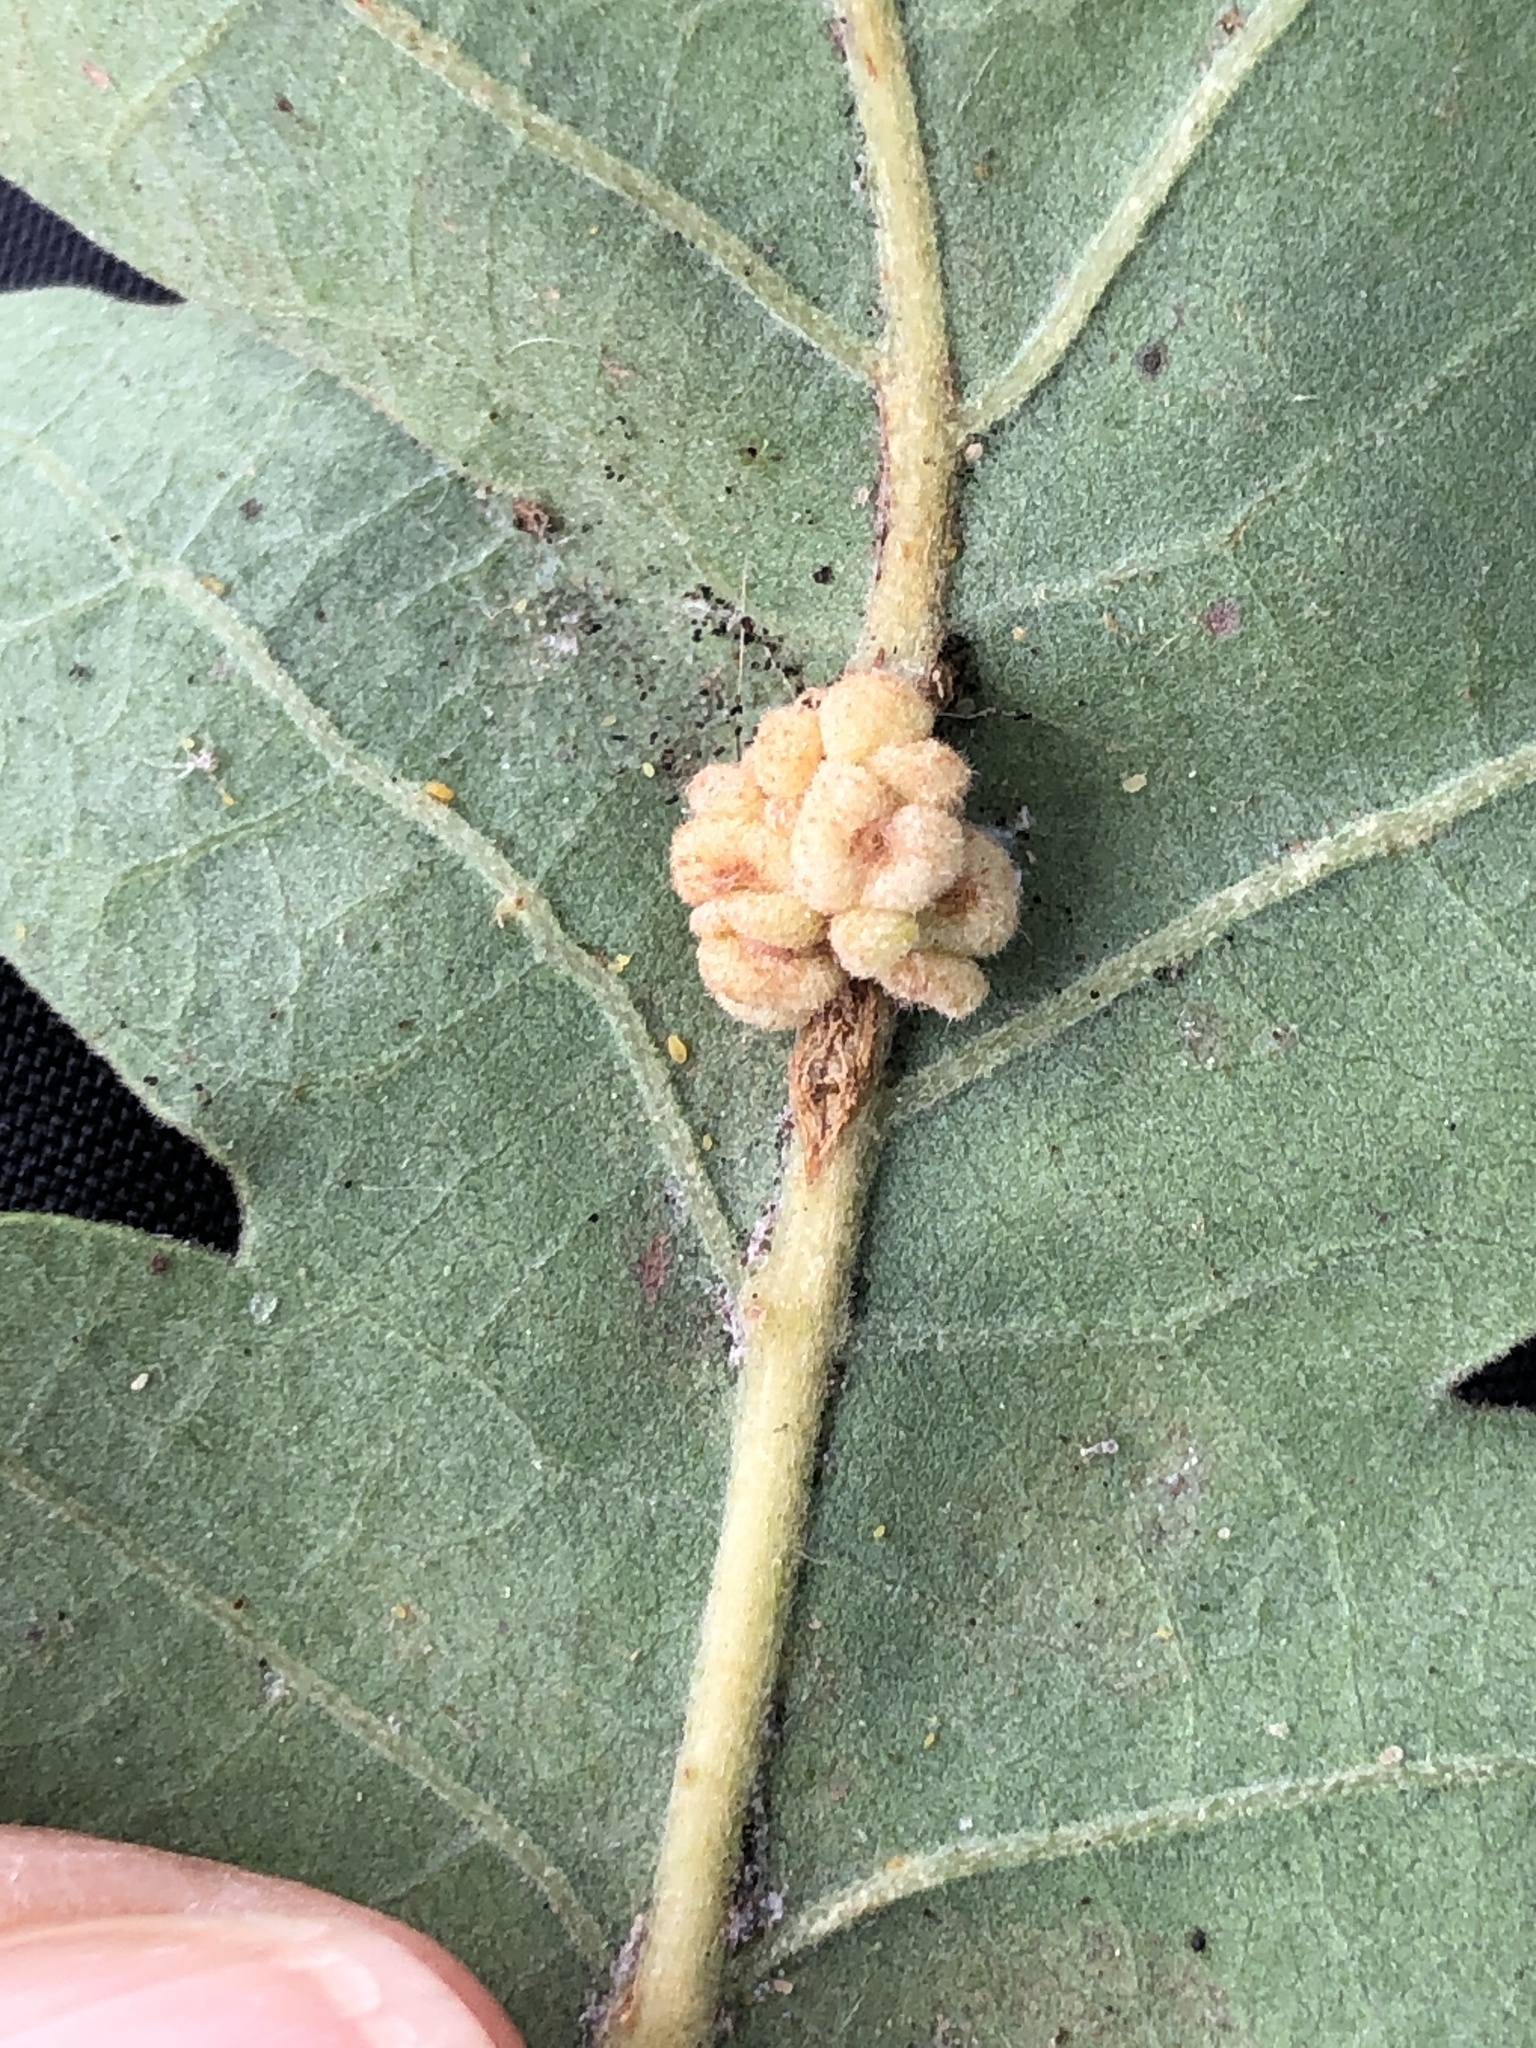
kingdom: Animalia
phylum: Arthropoda
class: Insecta
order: Hymenoptera
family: Cynipidae
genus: Andricus
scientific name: Andricus
